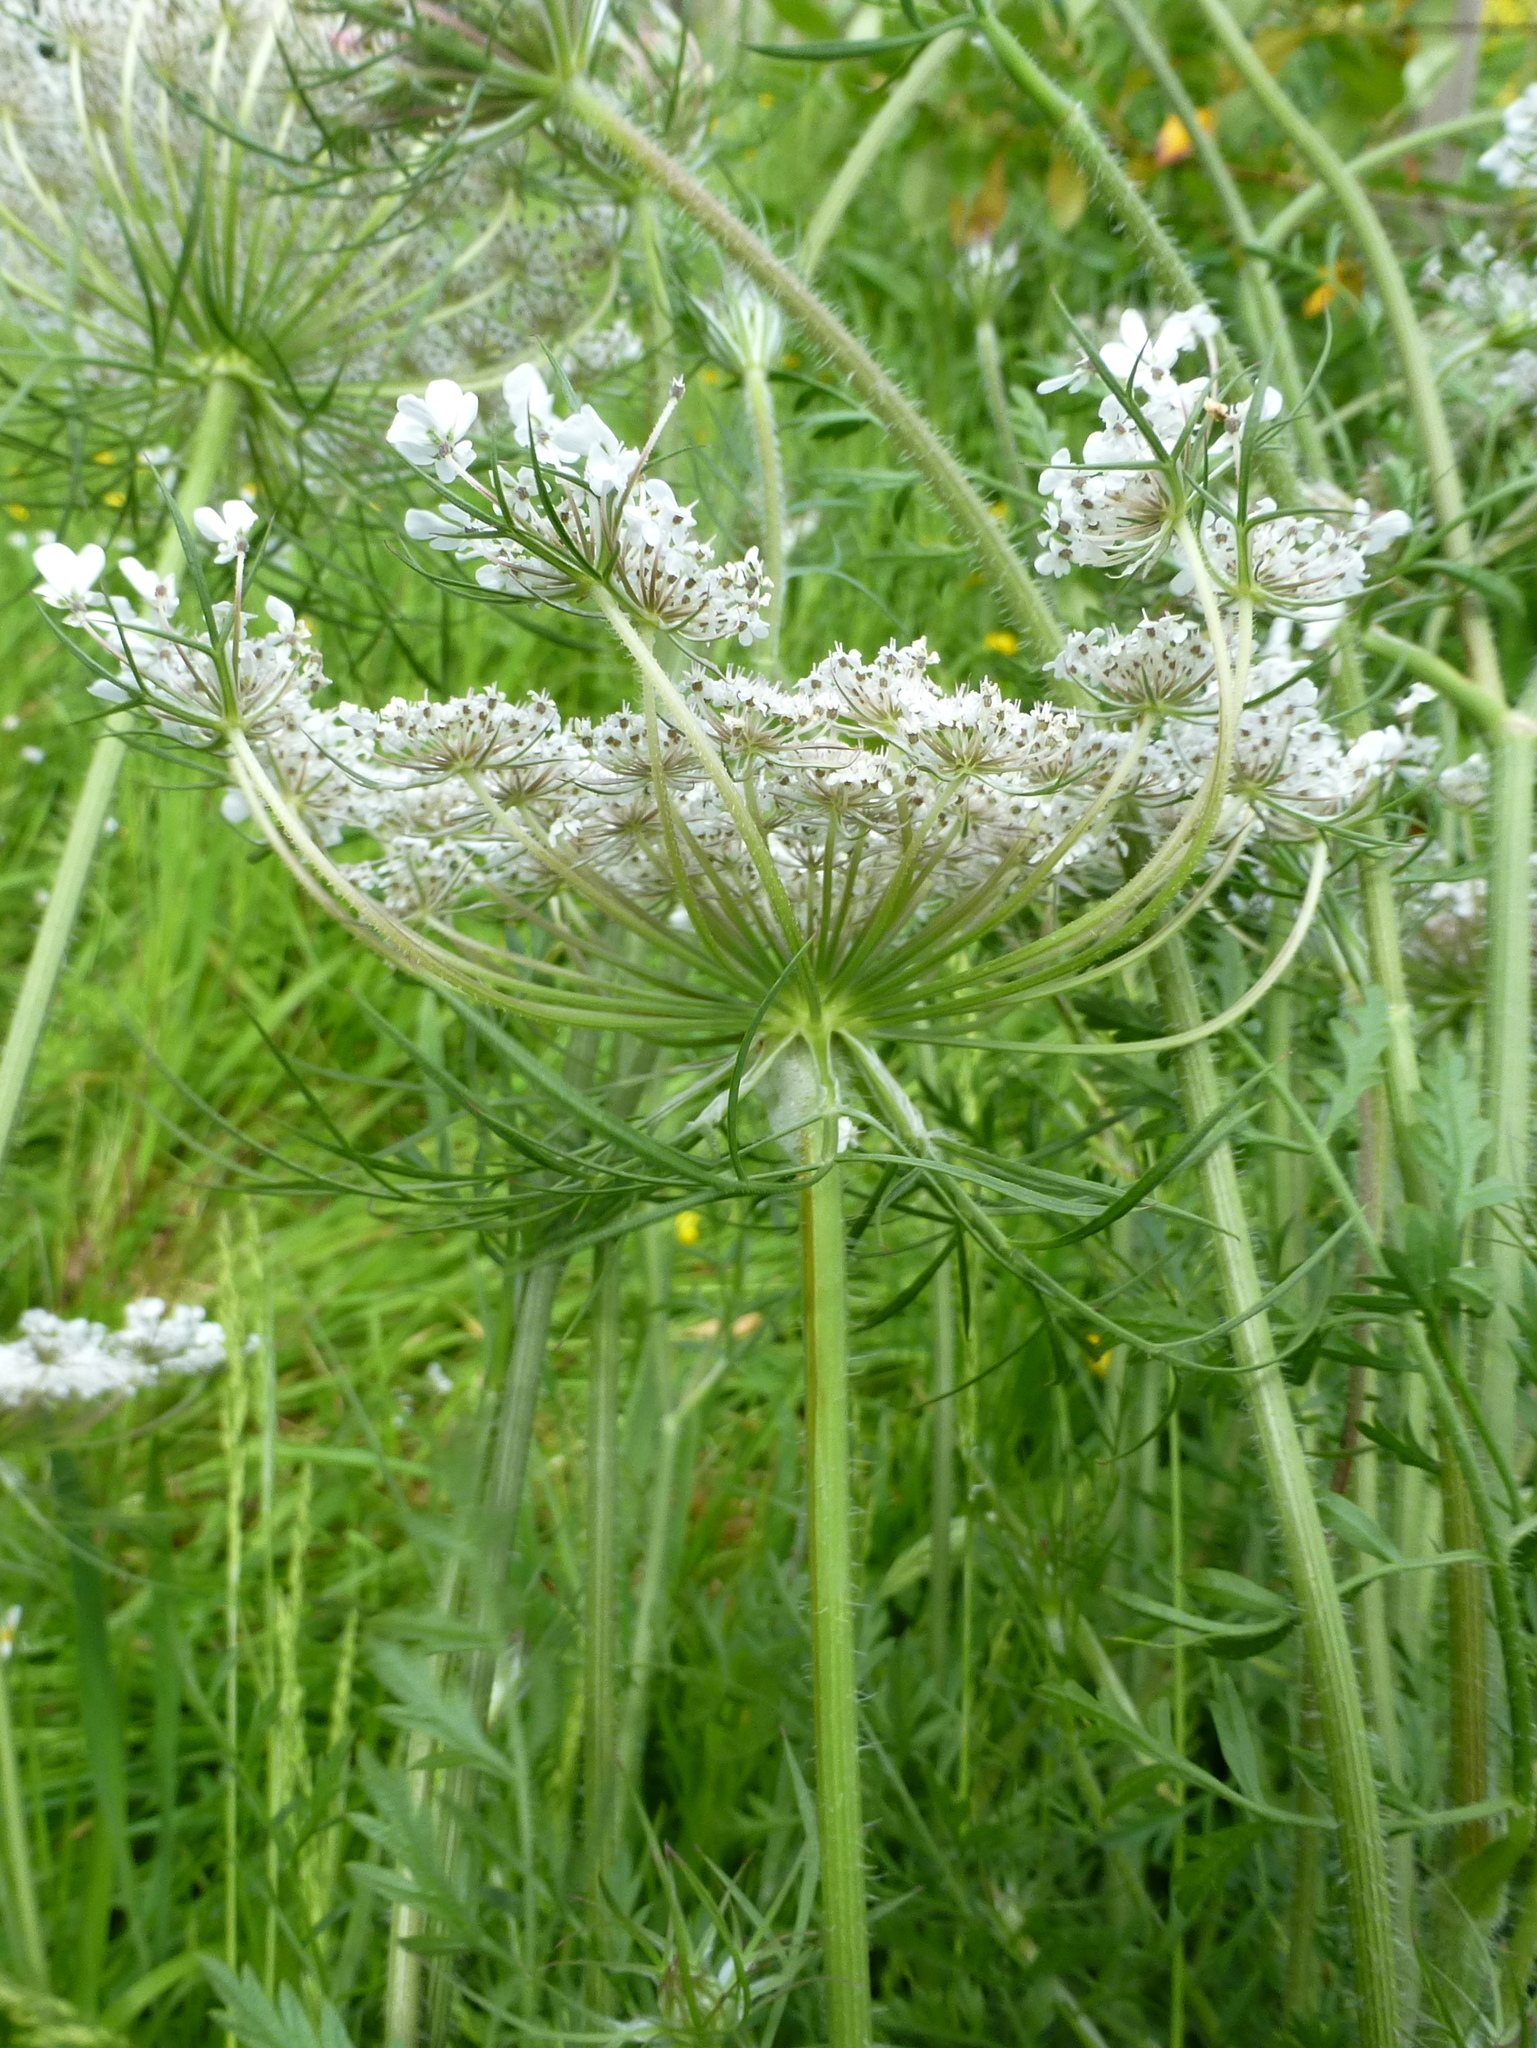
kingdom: Plantae
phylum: Tracheophyta
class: Magnoliopsida
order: Apiales
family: Apiaceae
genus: Daucus
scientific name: Daucus carota
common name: Wild carrot
